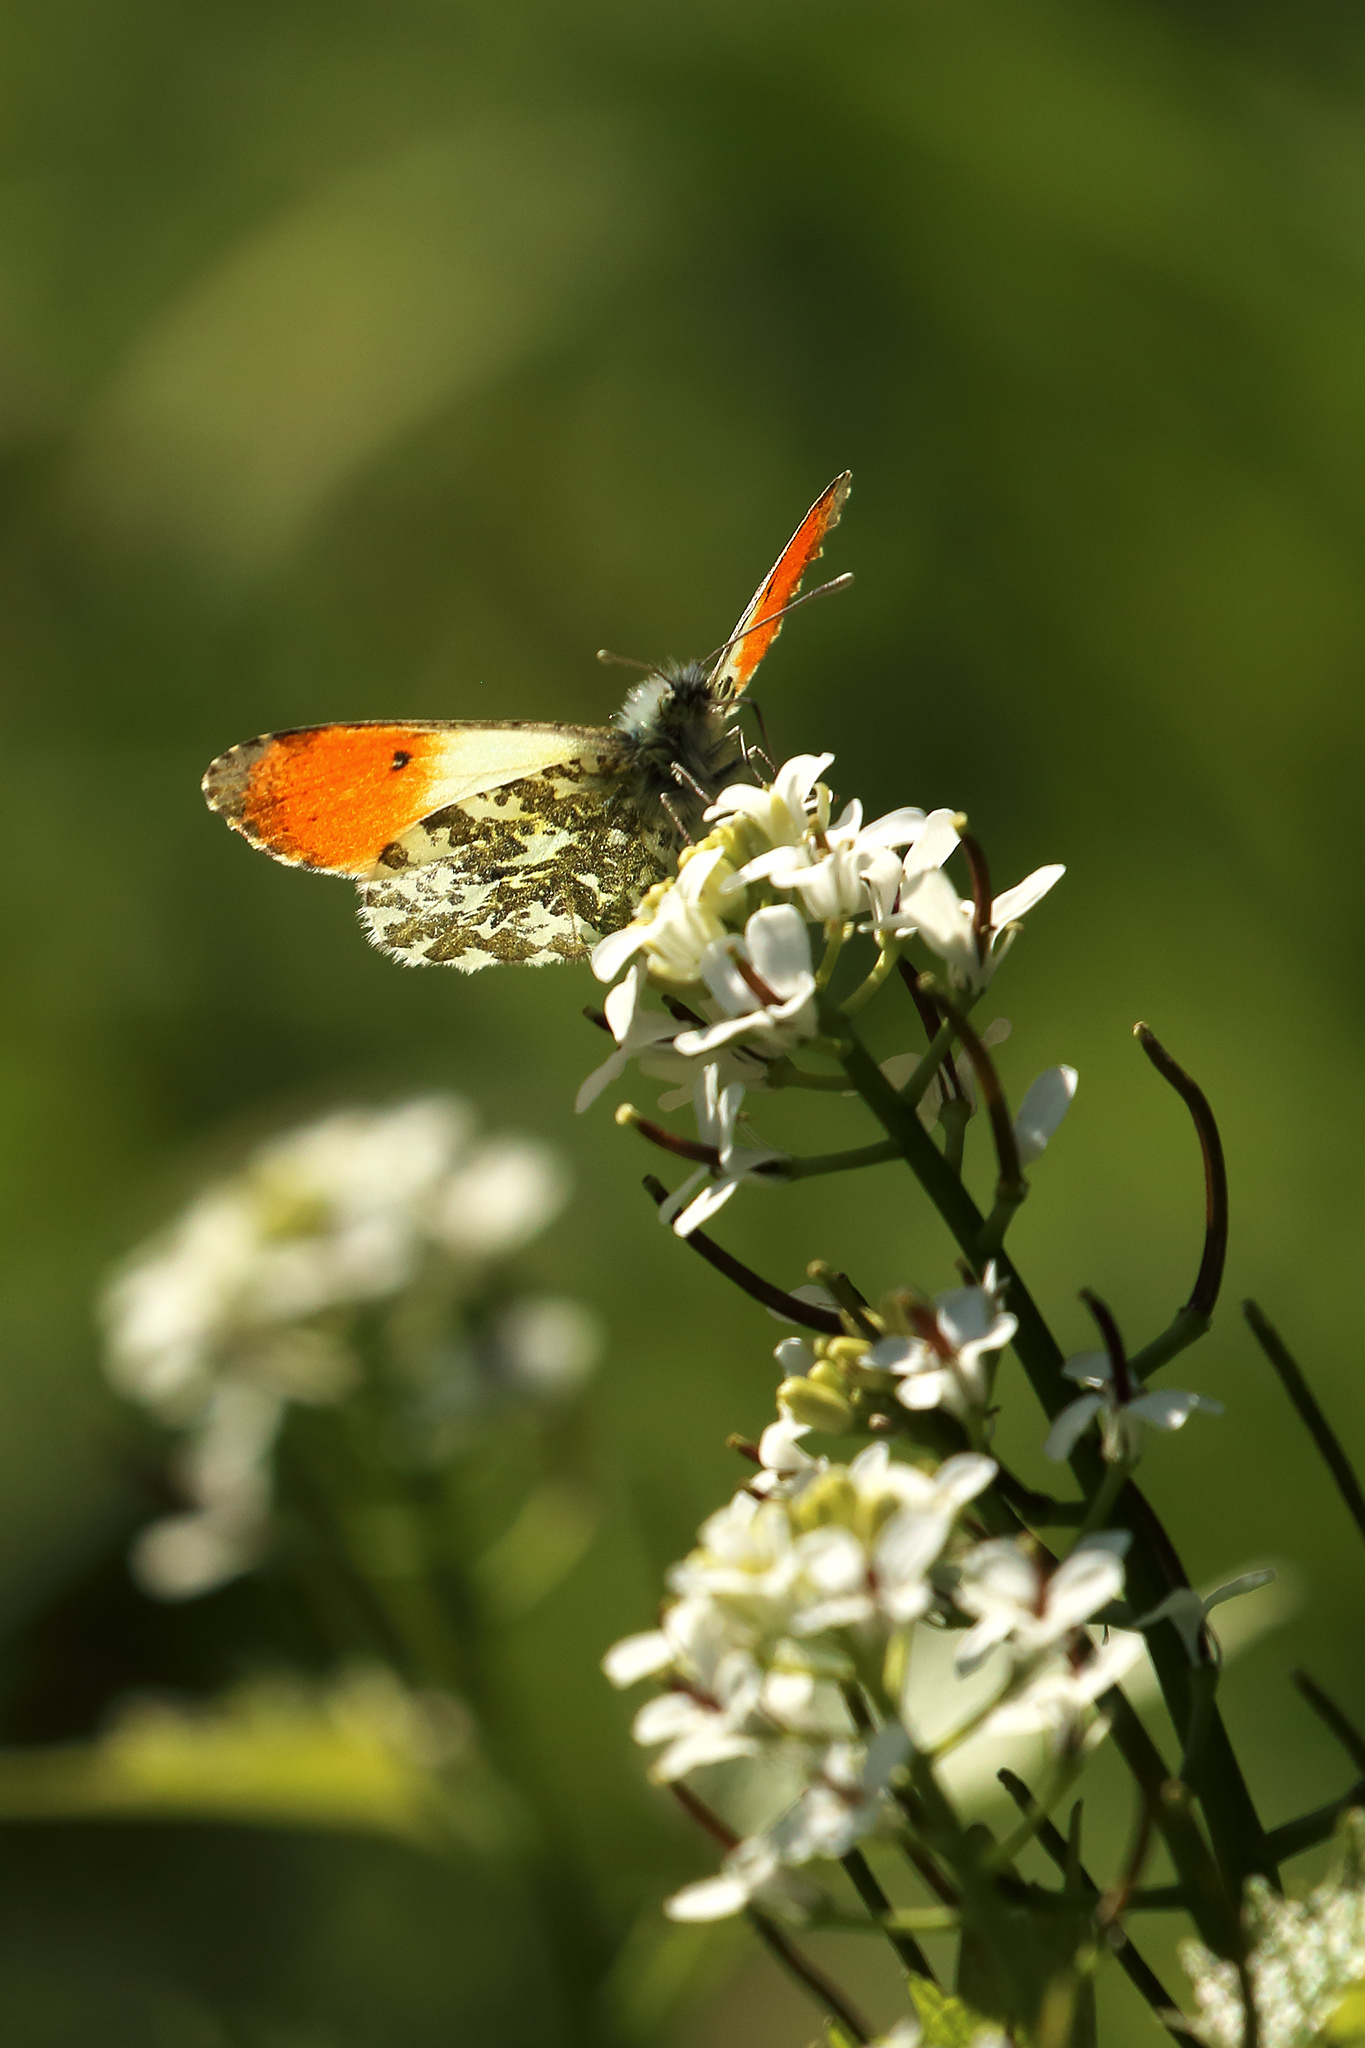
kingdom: Animalia
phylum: Arthropoda
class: Insecta
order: Lepidoptera
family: Pieridae
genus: Anthocharis
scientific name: Anthocharis cardamines
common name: Orange-tip
